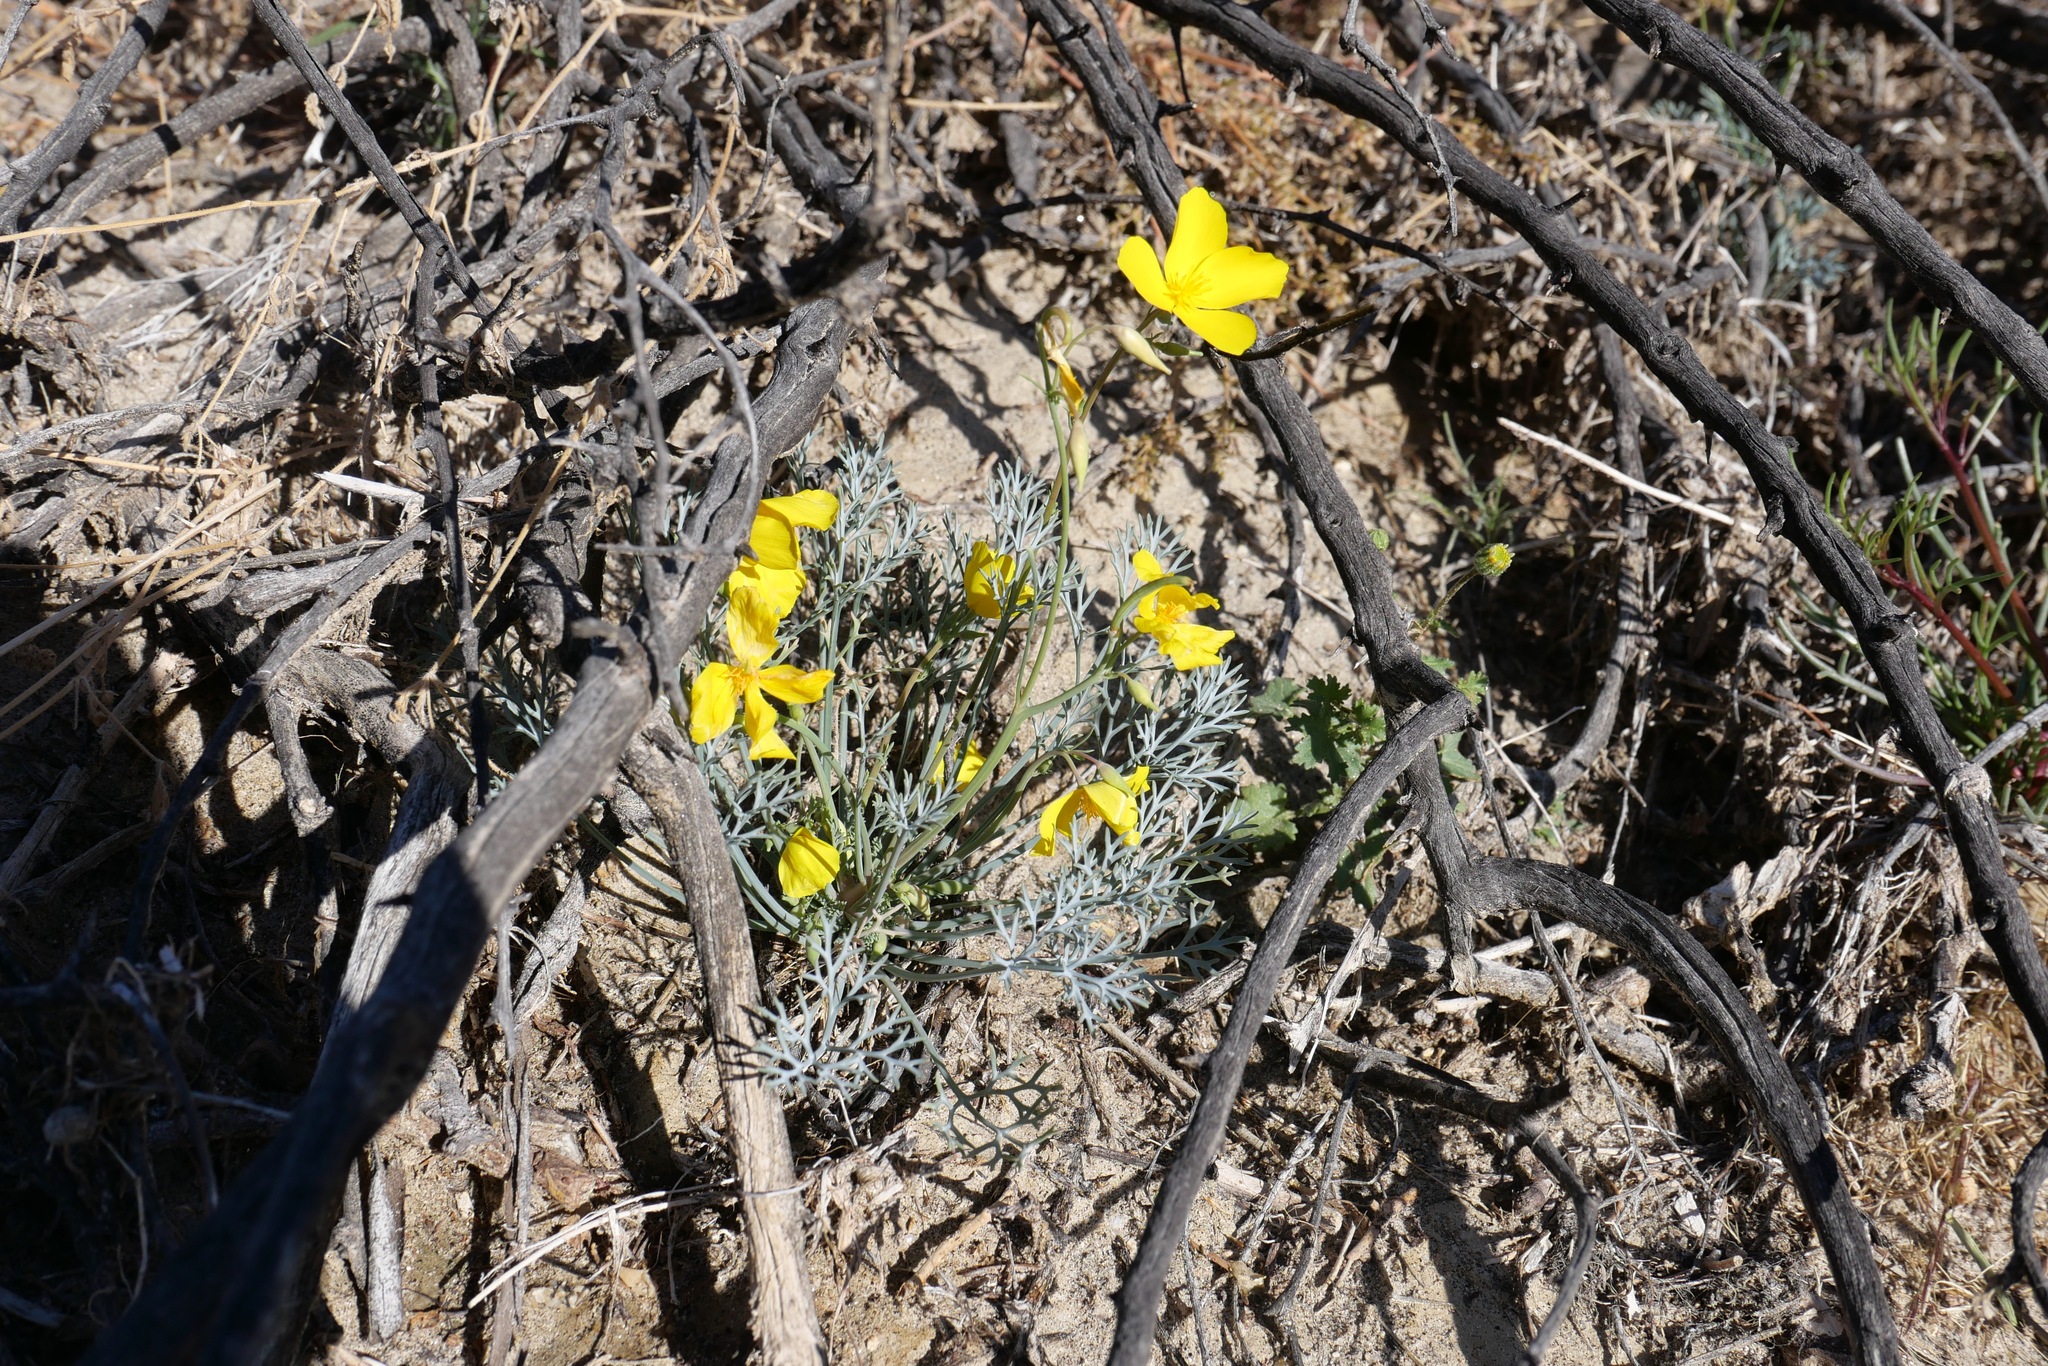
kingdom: Plantae
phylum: Tracheophyta
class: Magnoliopsida
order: Ranunculales
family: Papaveraceae
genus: Eschscholzia
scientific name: Eschscholzia parishii
